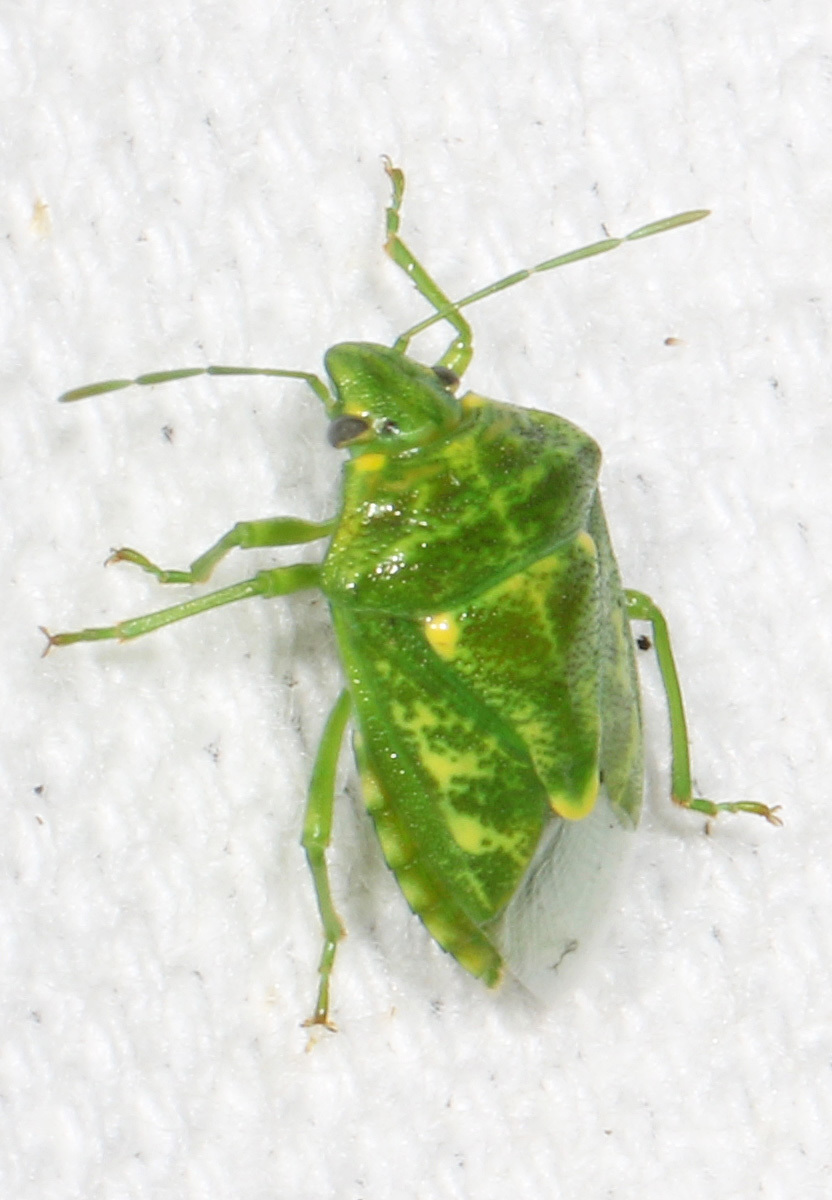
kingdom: Animalia
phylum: Arthropoda
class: Insecta
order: Hemiptera
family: Pentatomidae
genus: Banasa
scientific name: Banasa euchlora
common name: Cedar berry bug
